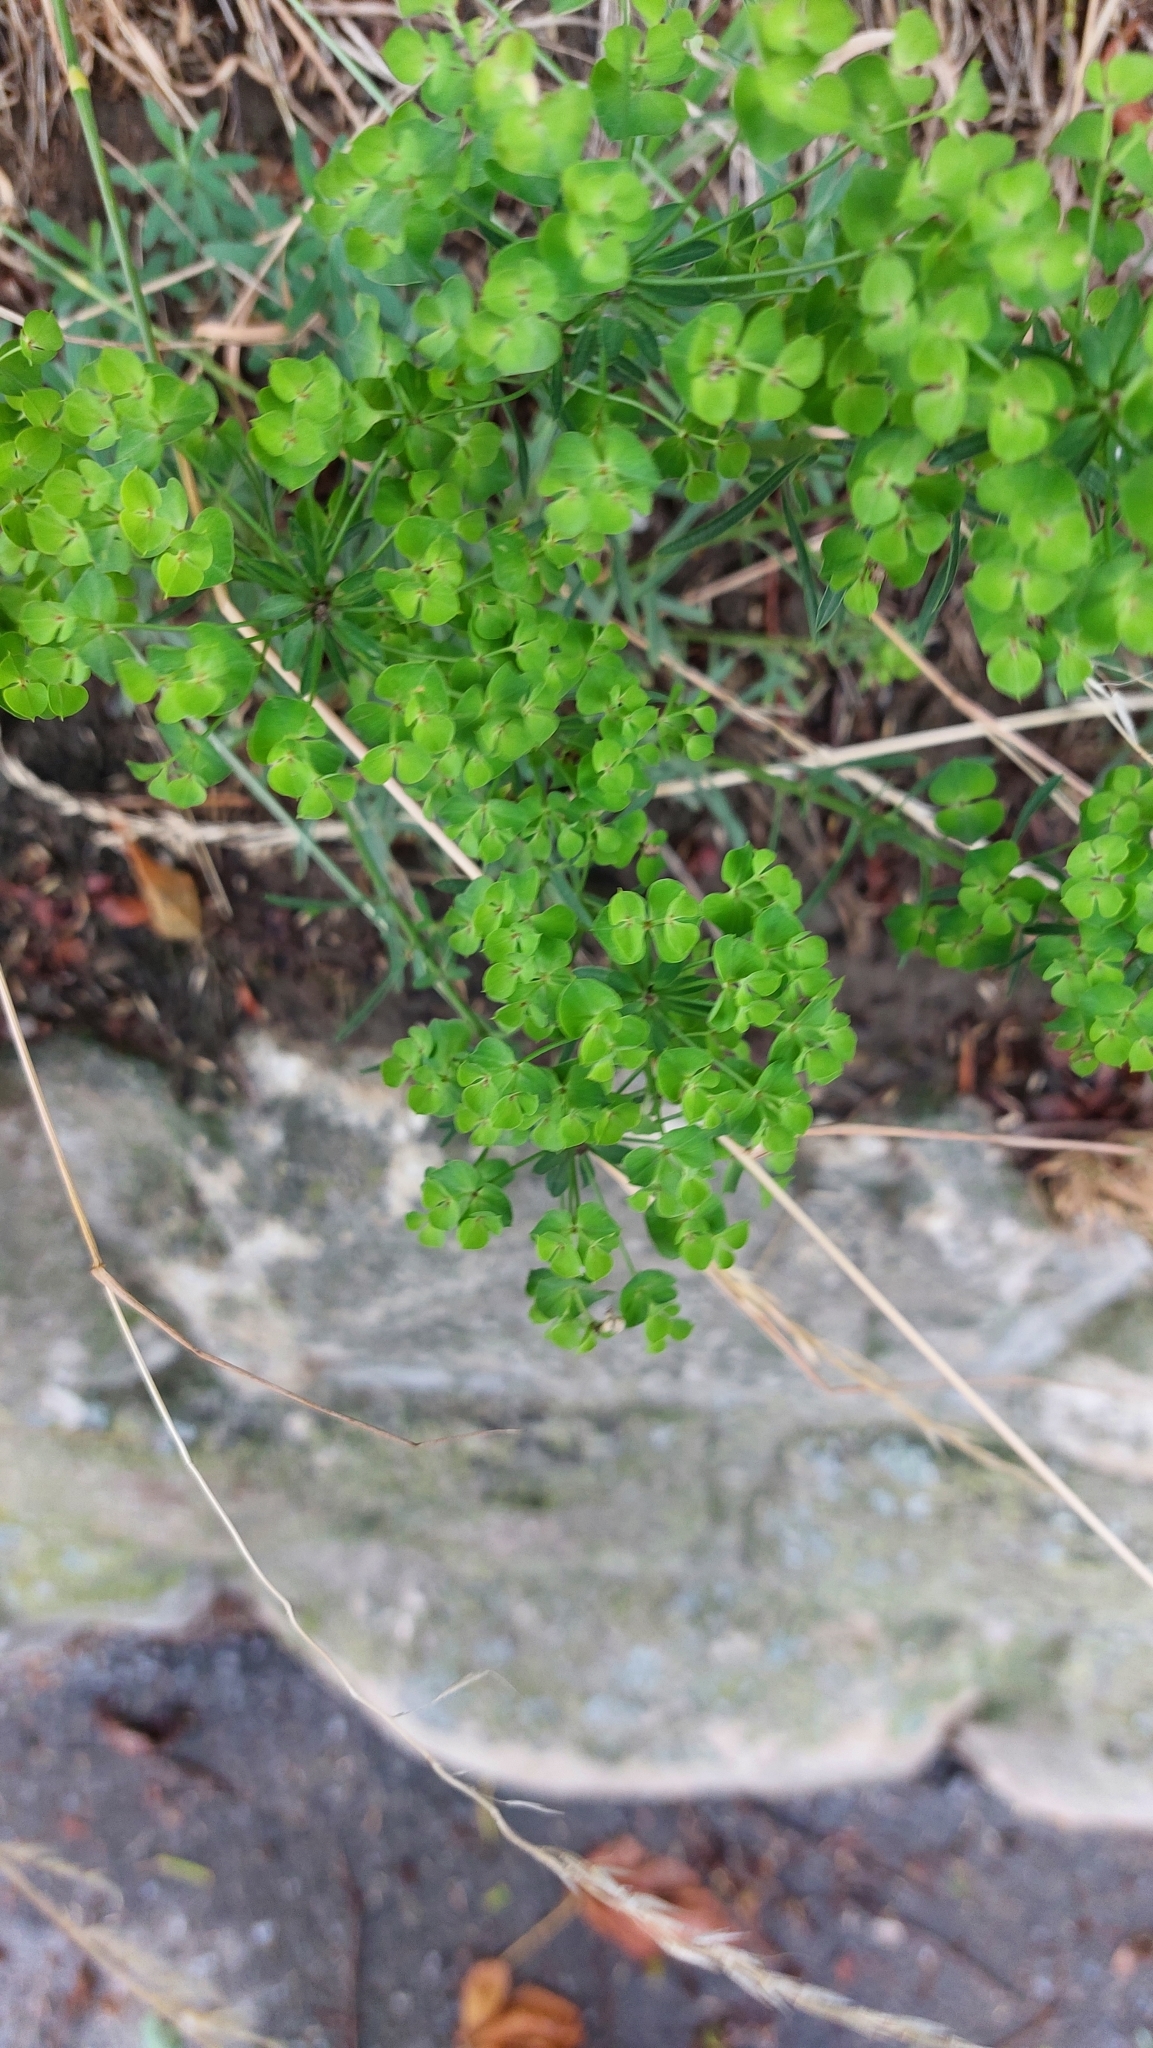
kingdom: Plantae
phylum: Tracheophyta
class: Magnoliopsida
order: Malpighiales
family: Euphorbiaceae
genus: Euphorbia
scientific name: Euphorbia esula
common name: Leafy spurge
